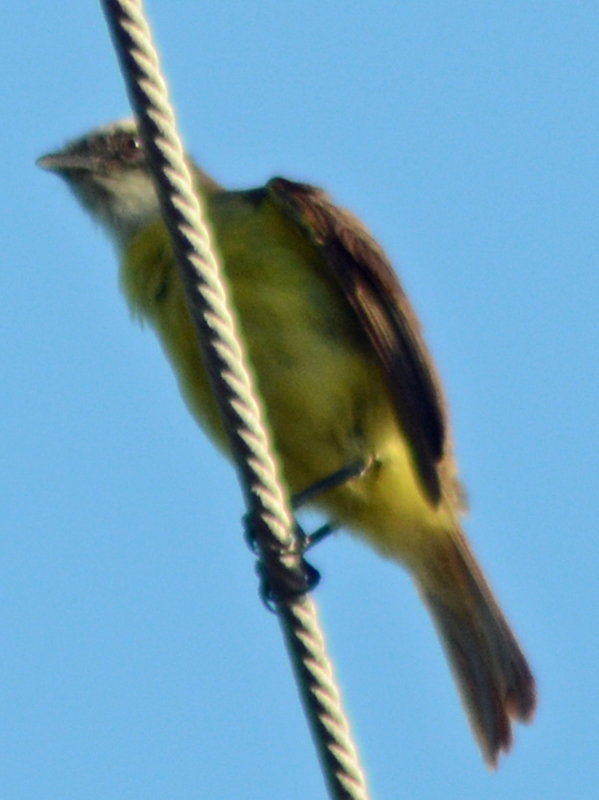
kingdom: Animalia
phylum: Chordata
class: Aves
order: Passeriformes
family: Tyrannidae
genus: Myiozetetes
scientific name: Myiozetetes similis
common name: Social flycatcher
